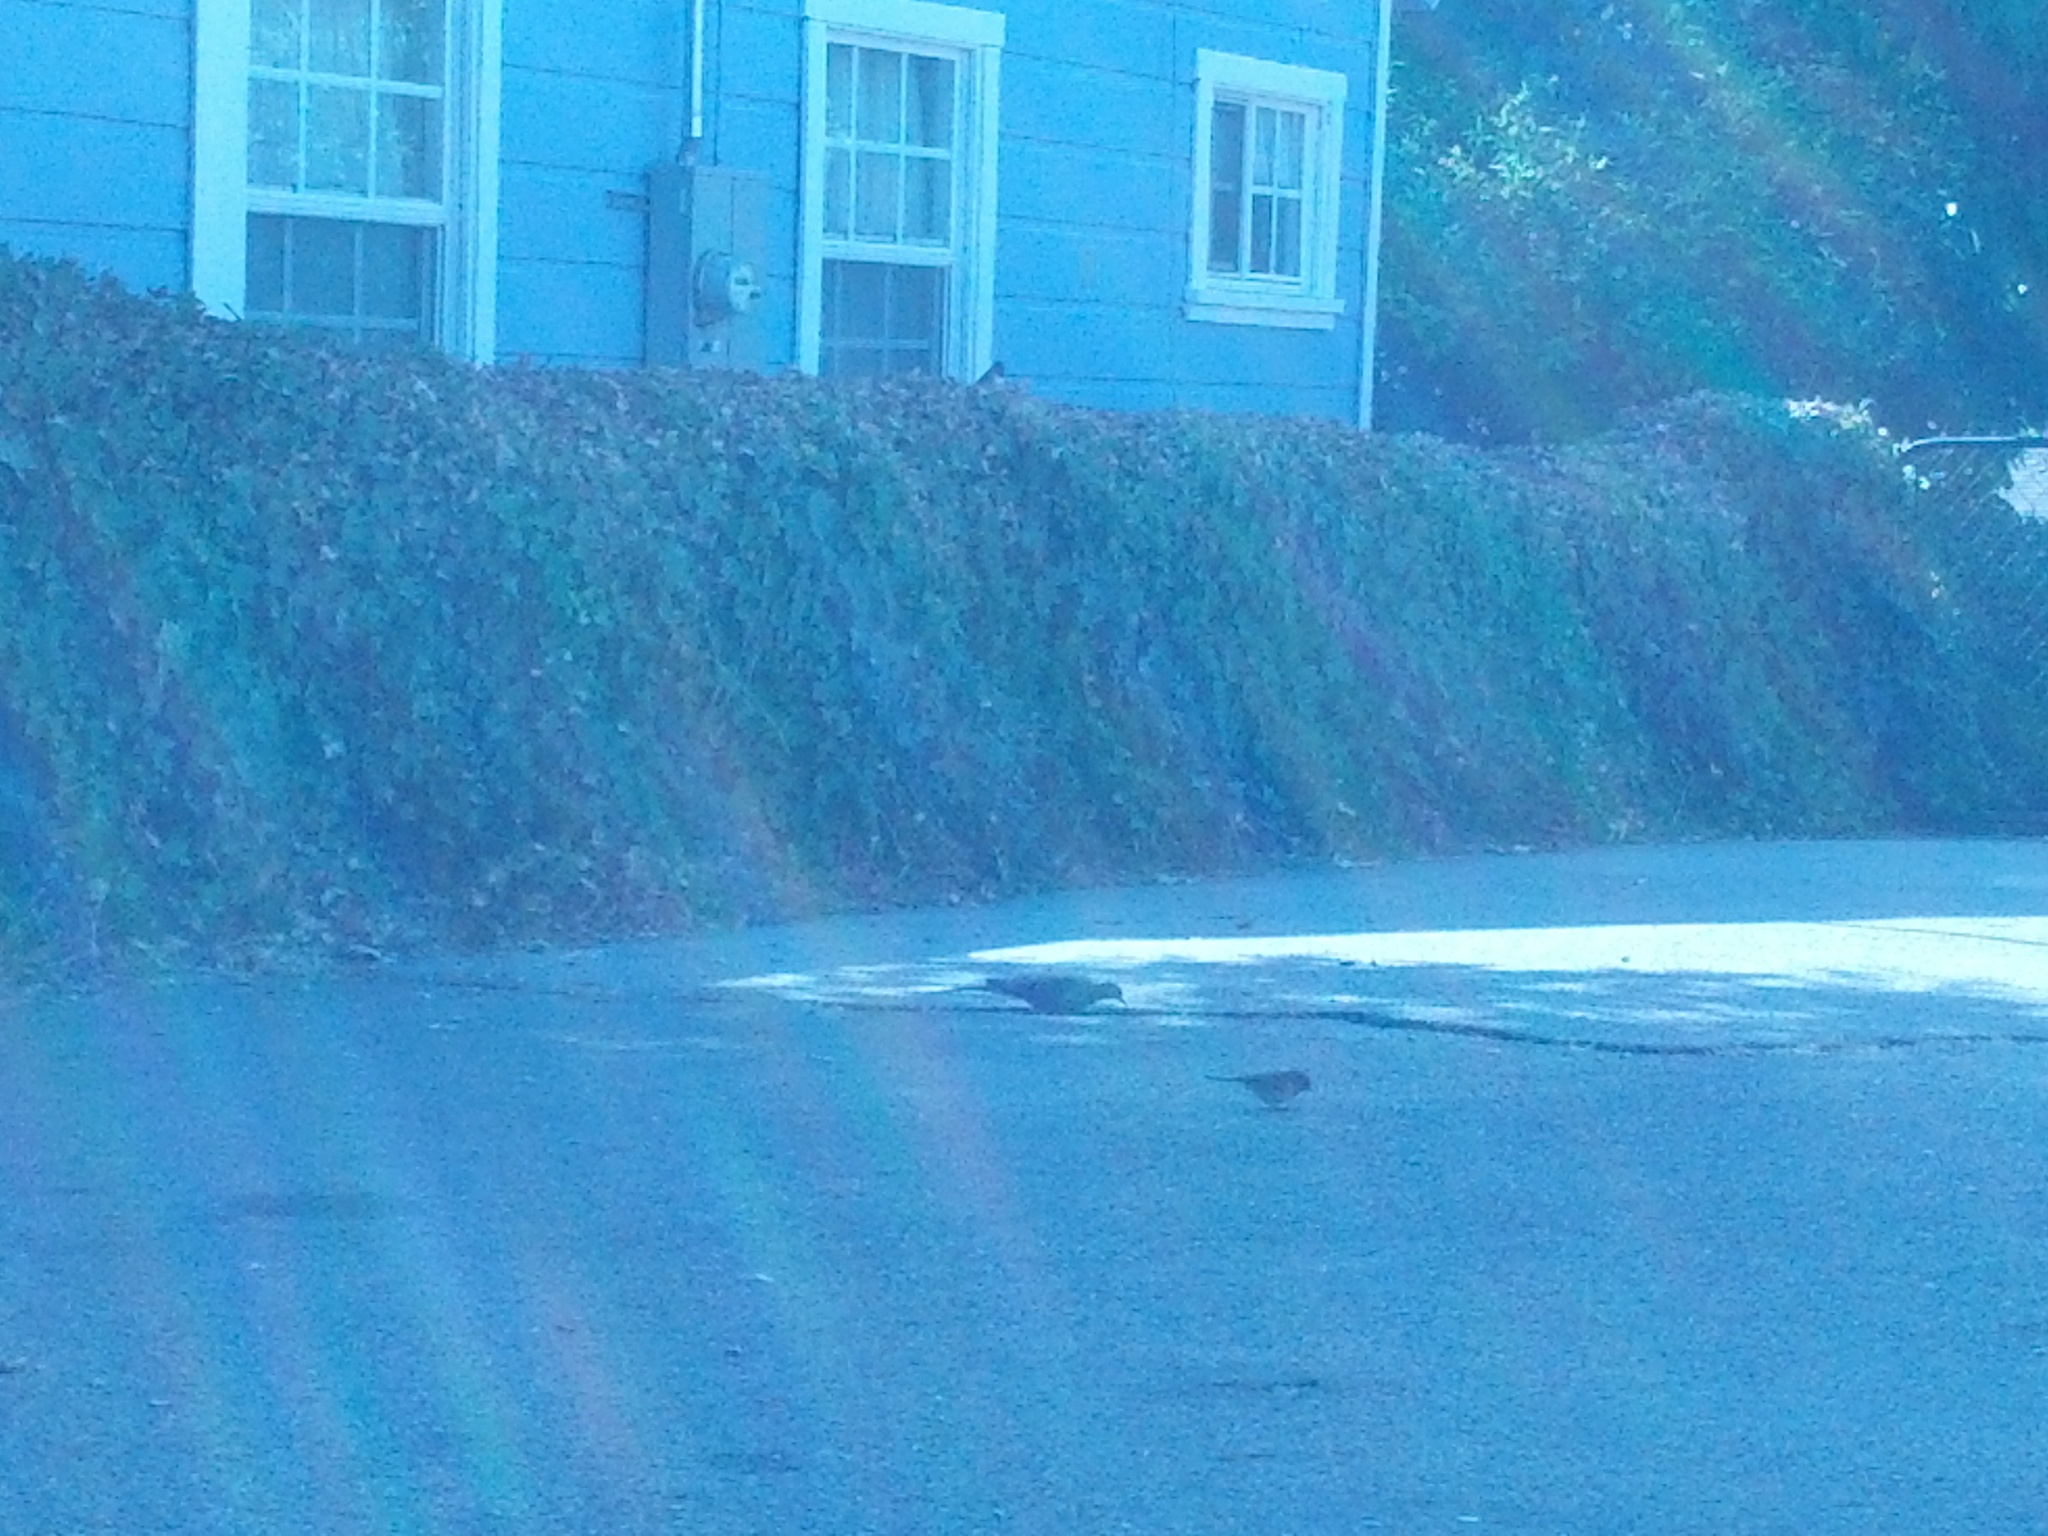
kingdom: Animalia
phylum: Chordata
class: Aves
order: Passeriformes
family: Passerellidae
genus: Junco
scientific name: Junco hyemalis
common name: Dark-eyed junco
